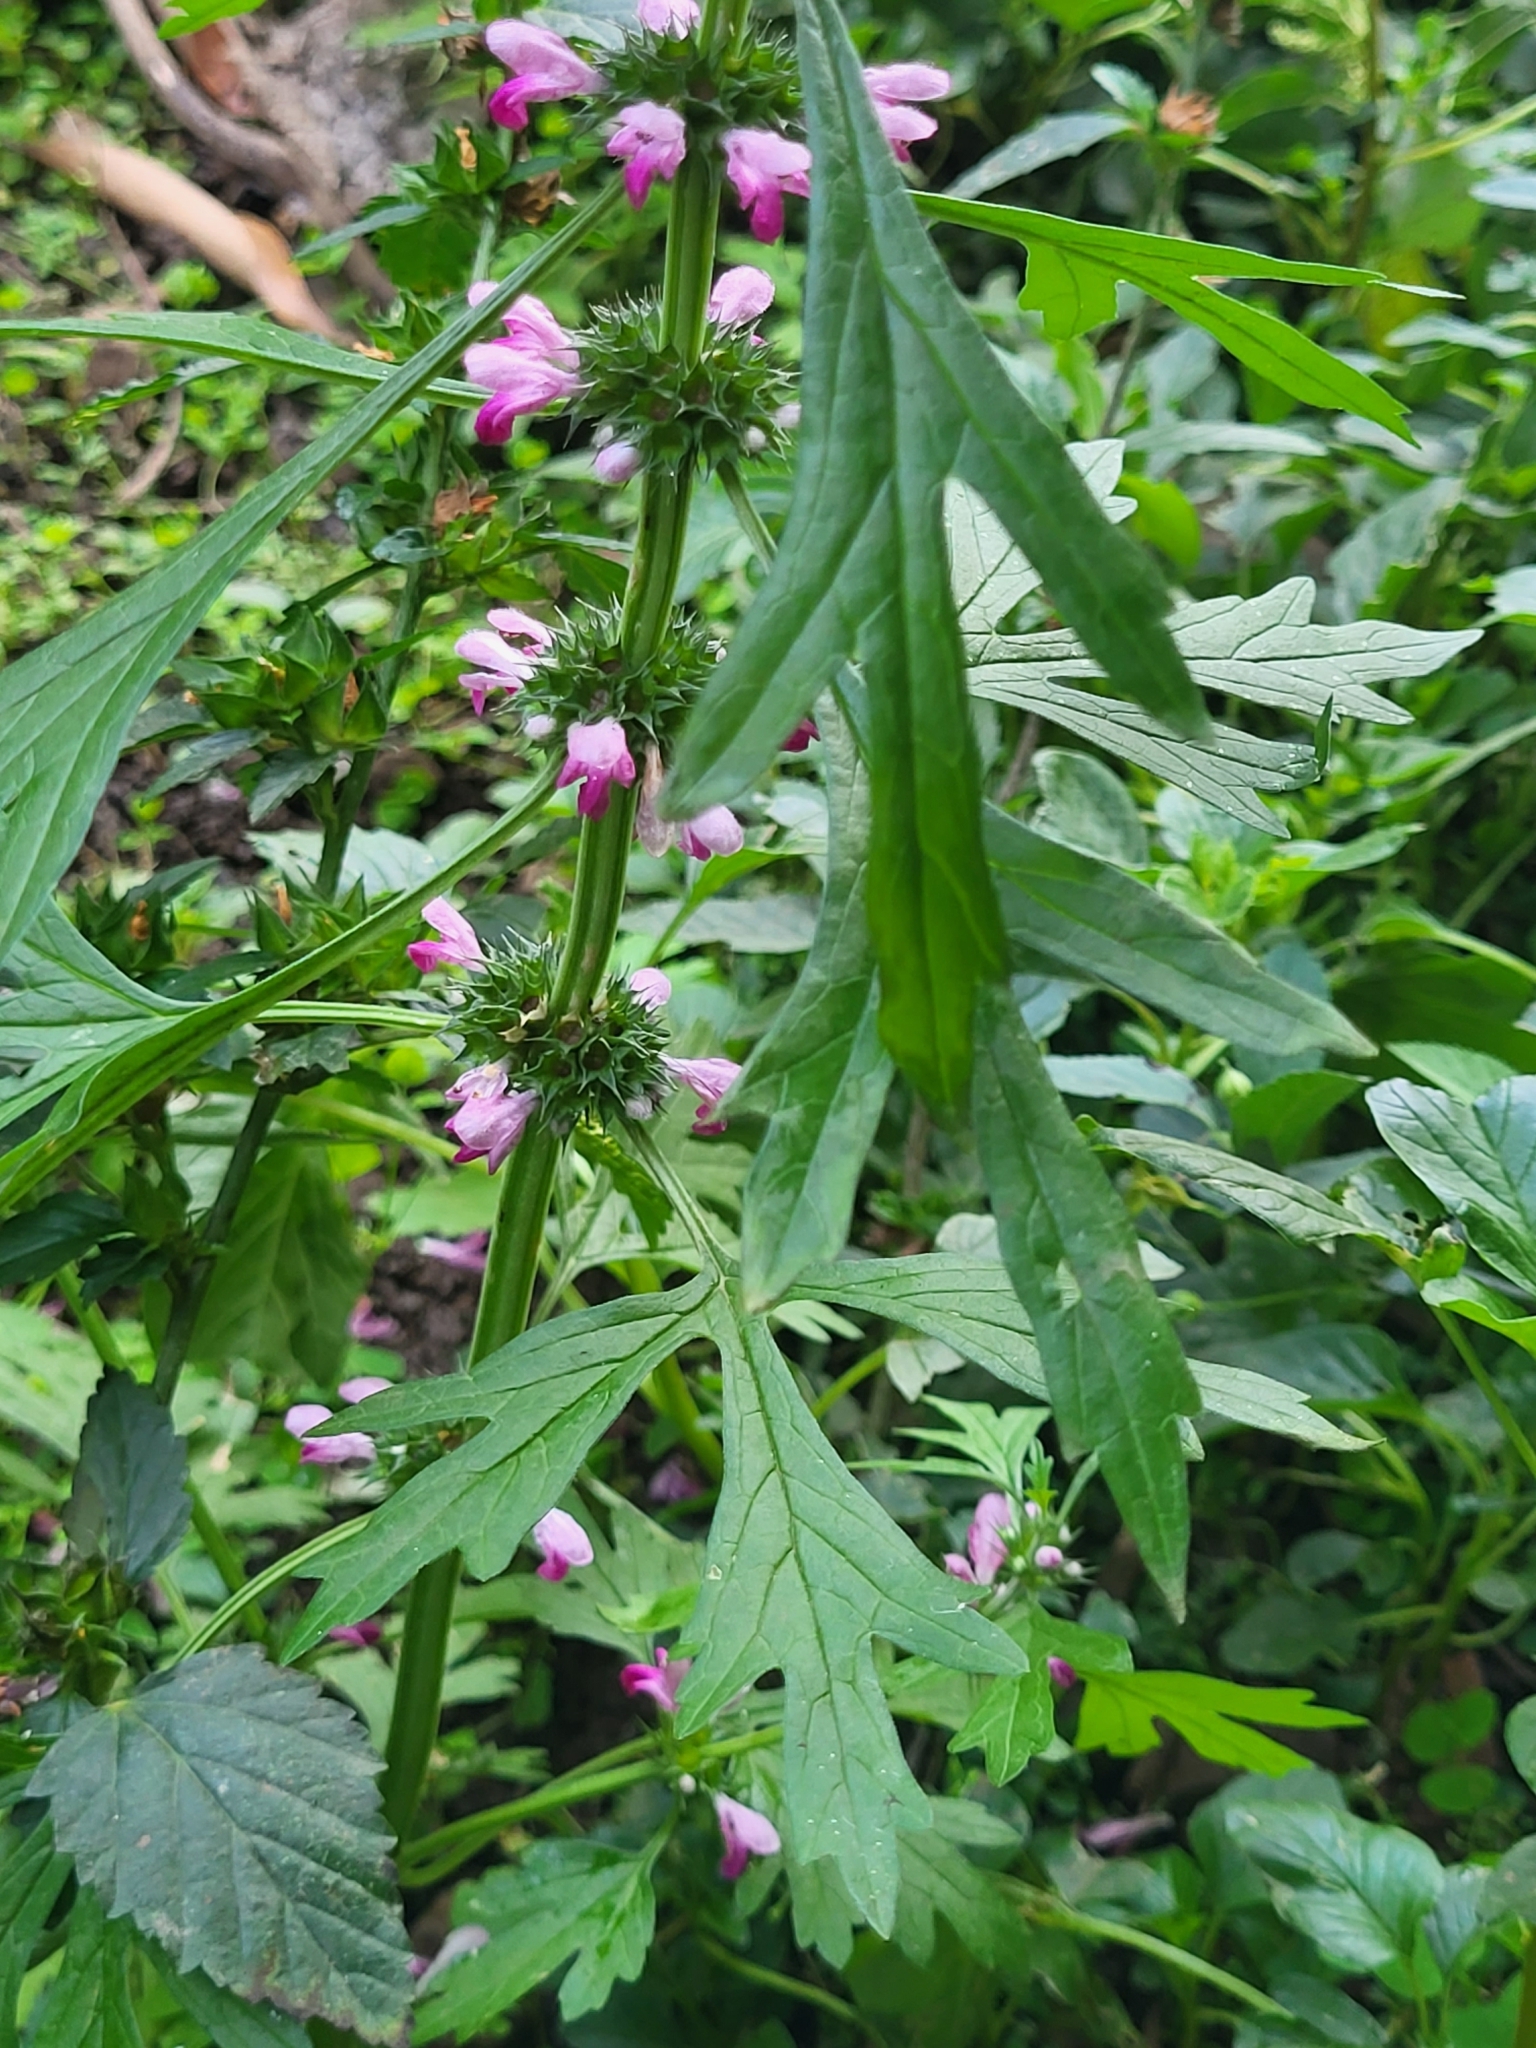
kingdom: Plantae
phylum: Tracheophyta
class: Magnoliopsida
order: Lamiales
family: Lamiaceae
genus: Leonurus
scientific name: Leonurus japonicus
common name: Honeyweed
